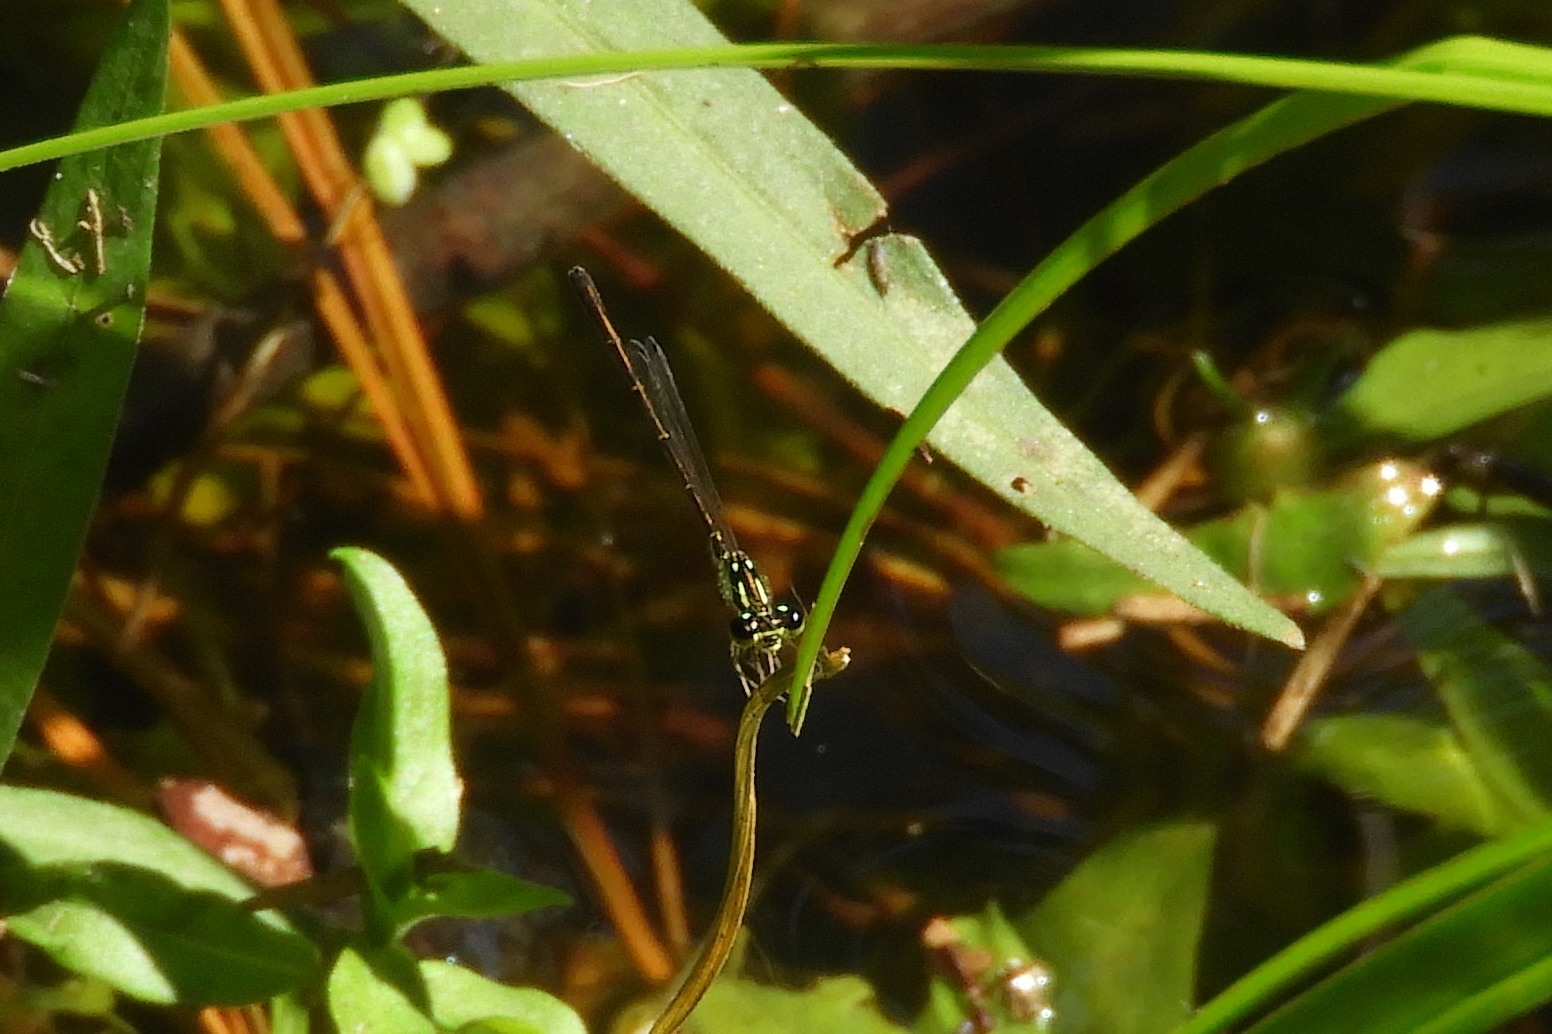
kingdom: Animalia
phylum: Arthropoda
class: Insecta
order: Odonata
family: Coenagrionidae
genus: Ischnura
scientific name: Ischnura posita
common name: Fragile forktail
